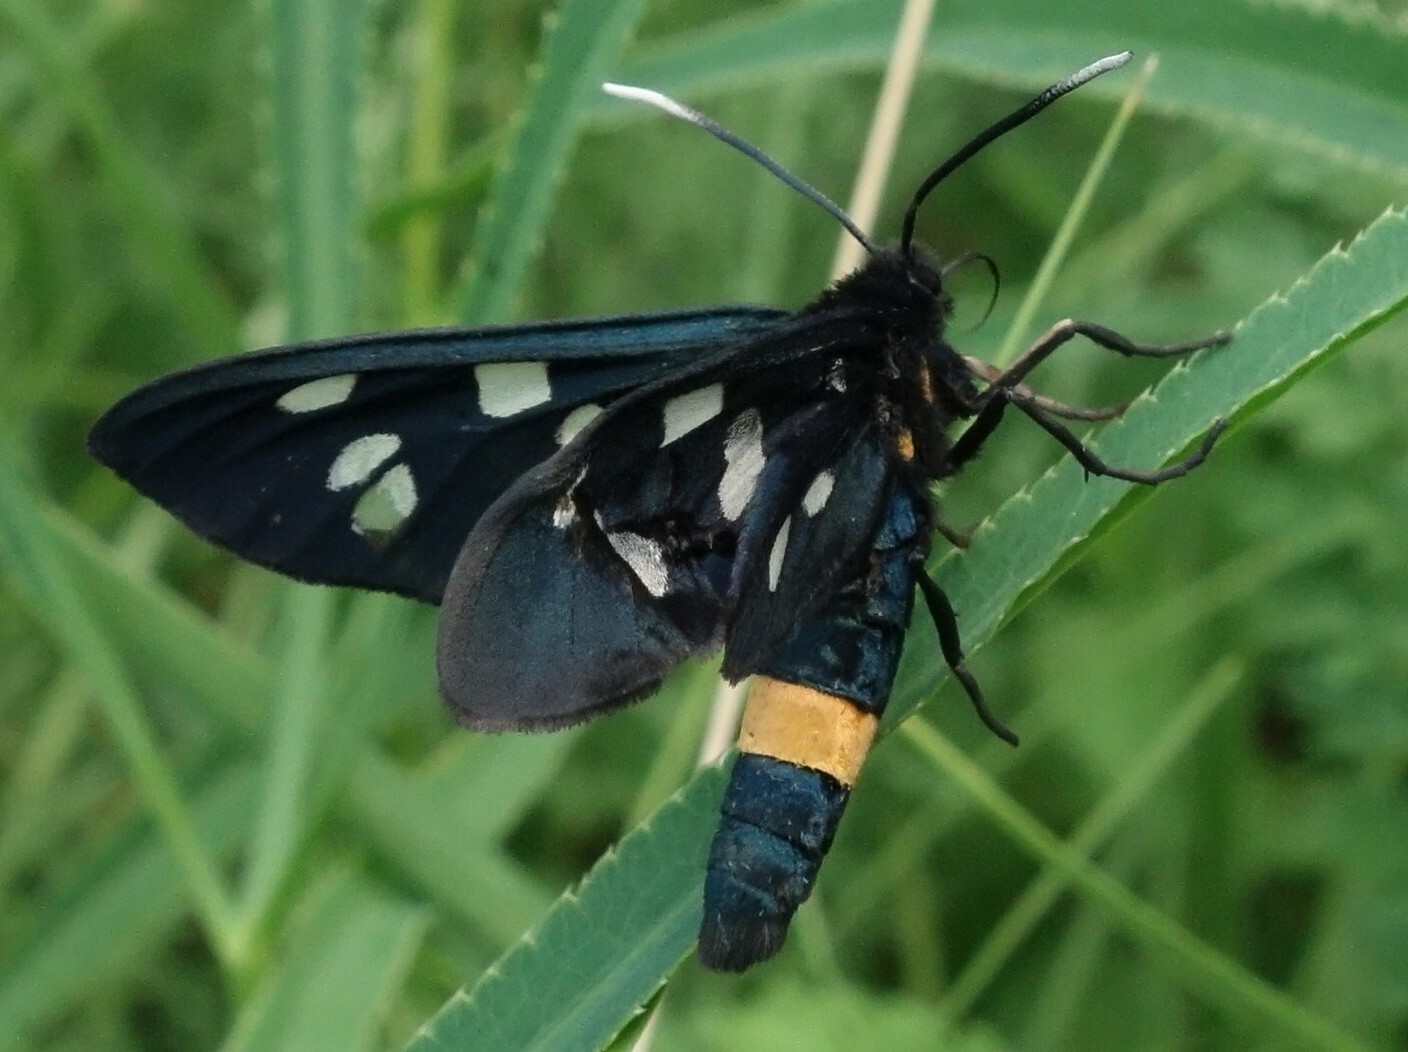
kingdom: Animalia
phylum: Arthropoda
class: Insecta
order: Lepidoptera
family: Erebidae
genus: Amata
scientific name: Amata phegea
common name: Nine-spotted
